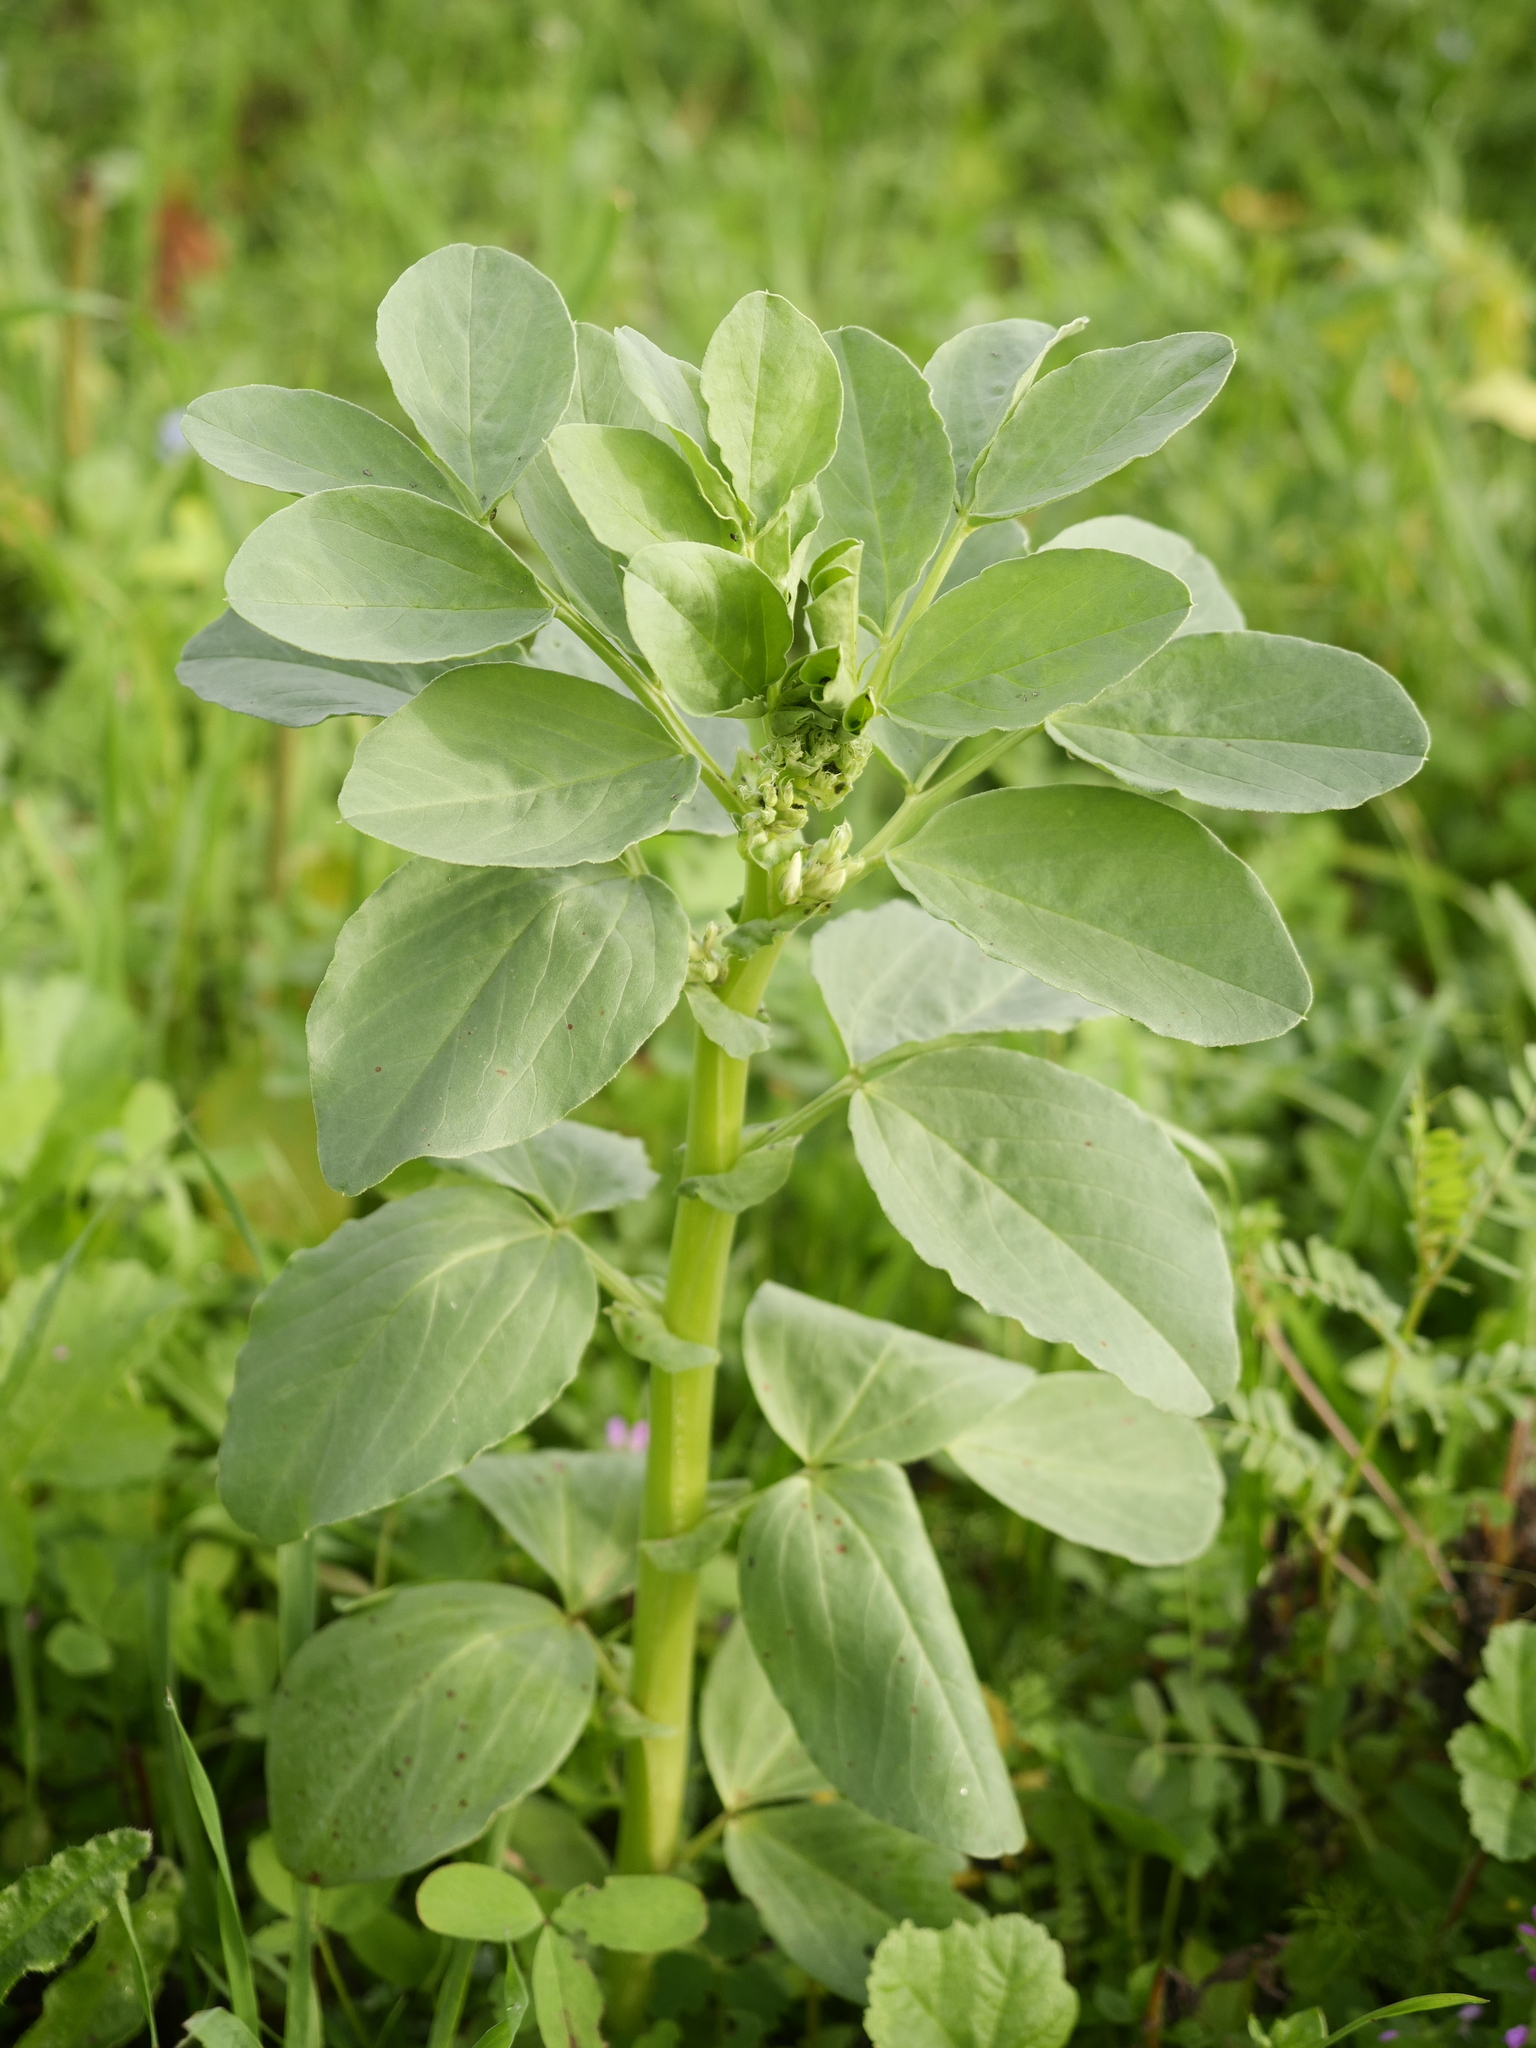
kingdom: Plantae
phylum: Tracheophyta
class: Magnoliopsida
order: Fabales
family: Fabaceae
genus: Vicia
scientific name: Vicia faba
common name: Broad bean
